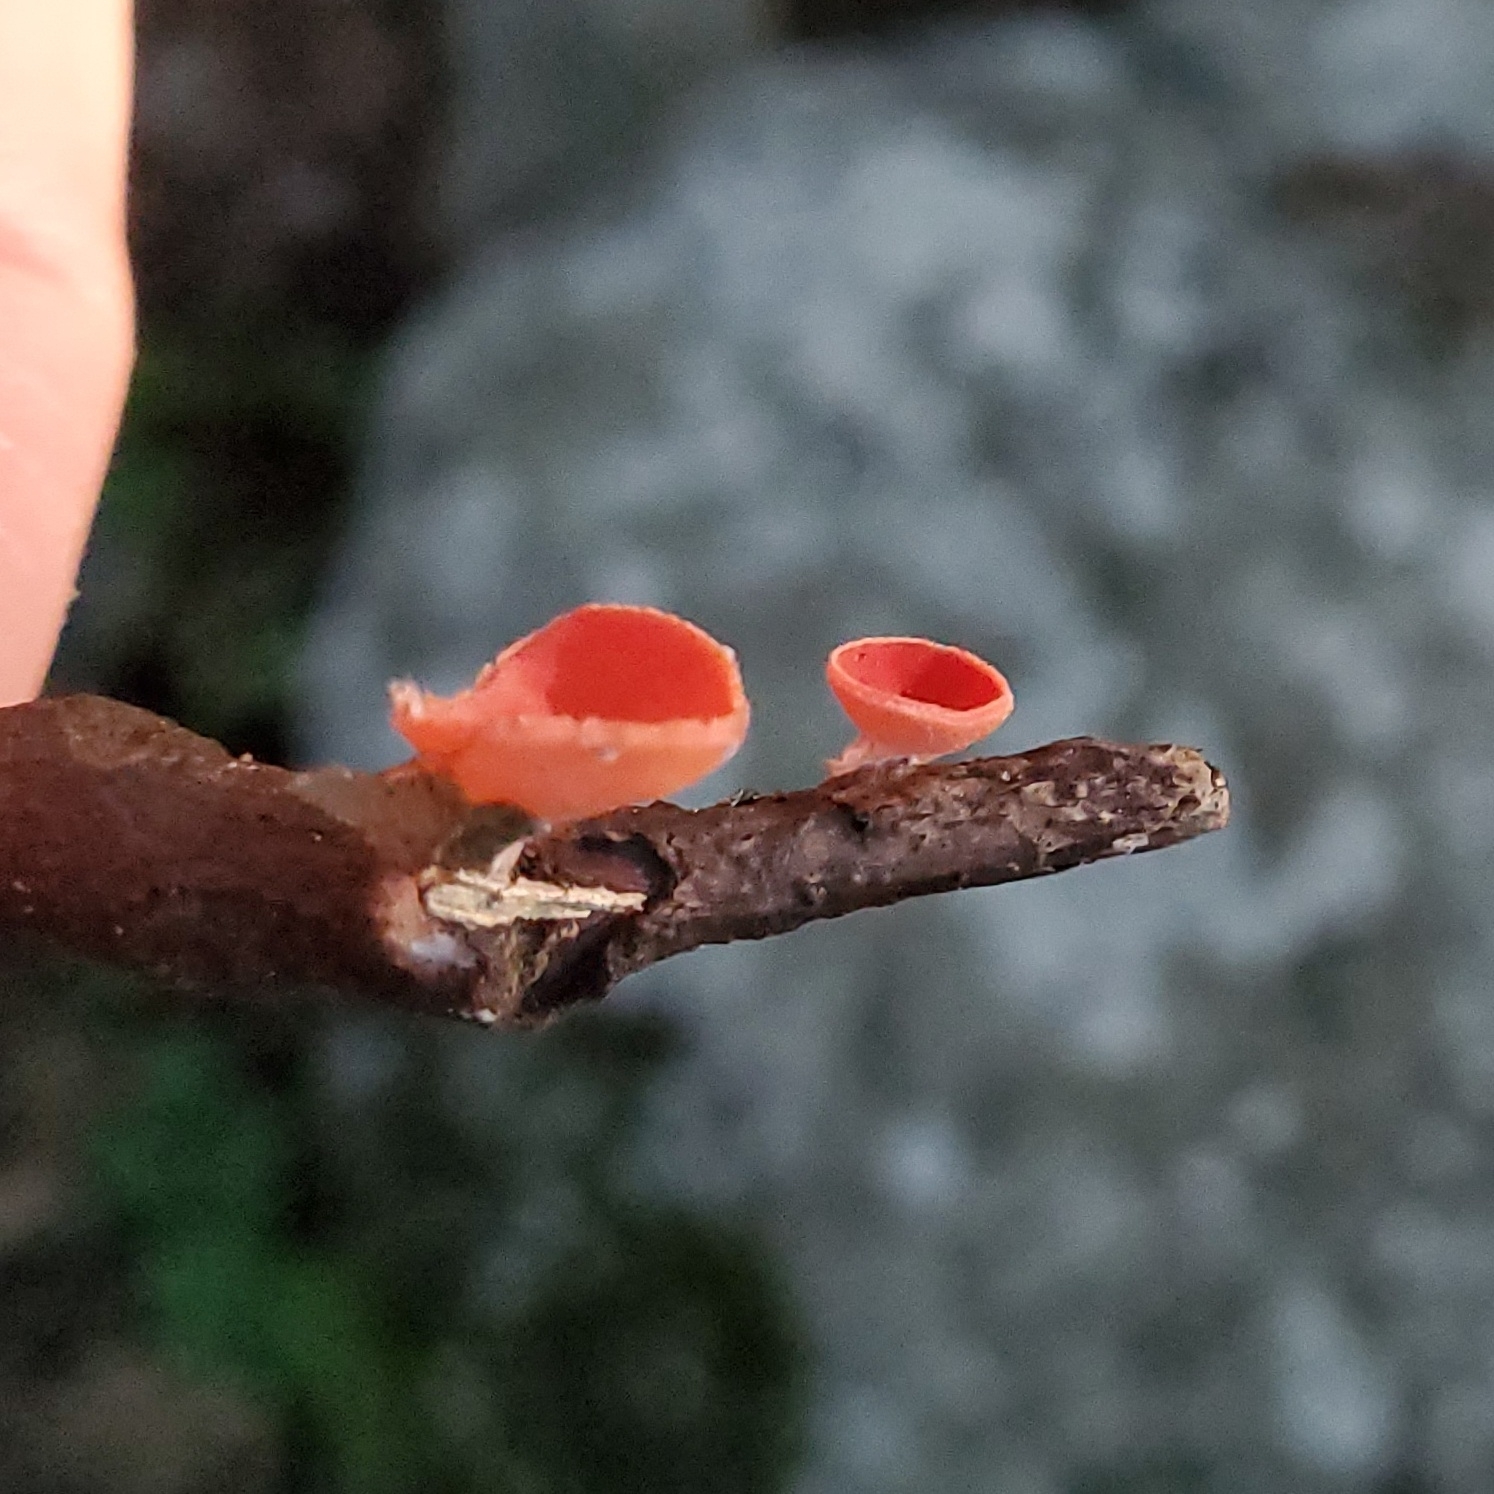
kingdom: Fungi
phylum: Ascomycota
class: Pezizomycetes
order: Pezizales
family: Sarcoscyphaceae
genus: Sarcoscypha
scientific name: Sarcoscypha occidentalis
